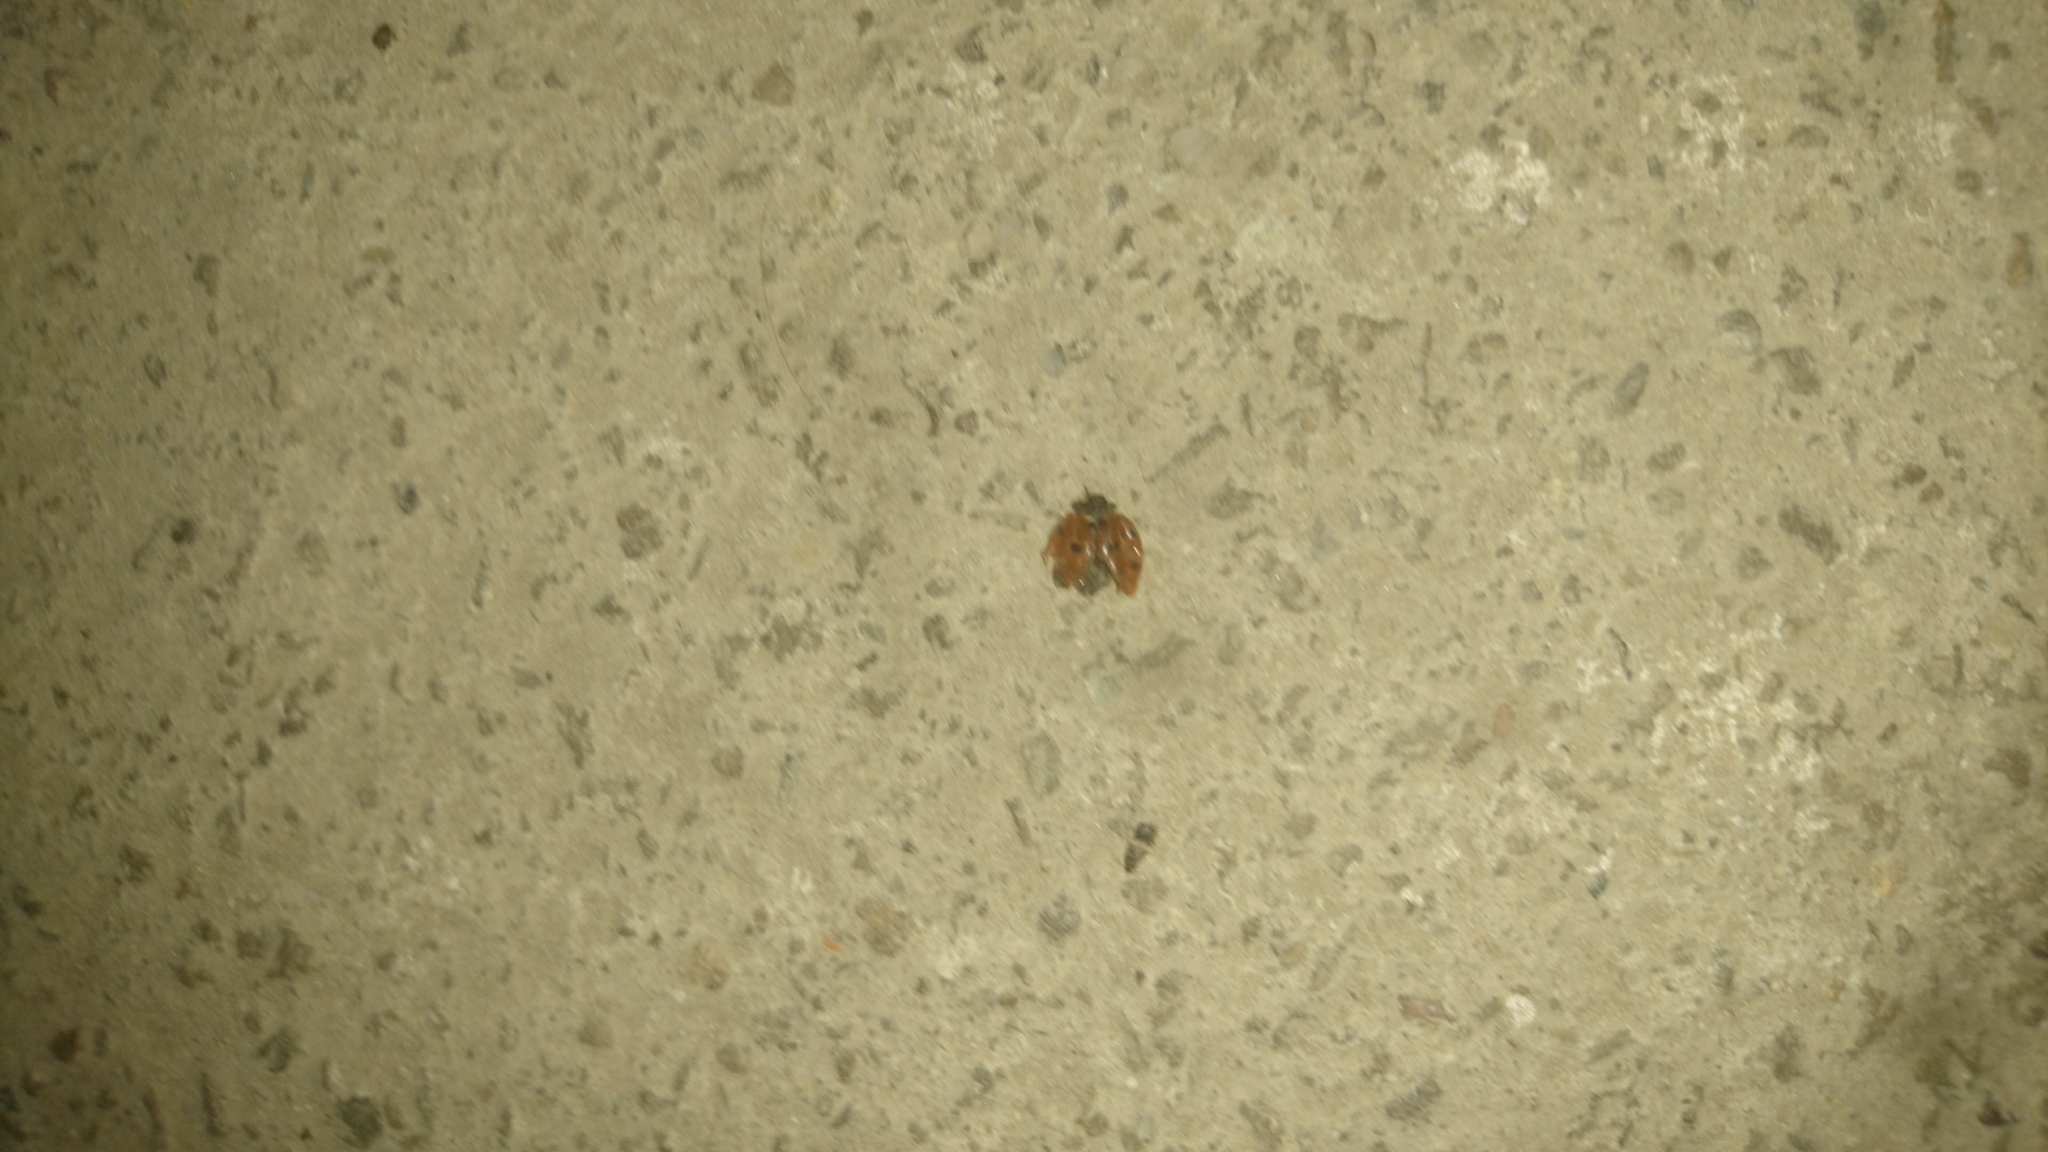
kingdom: Animalia
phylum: Arthropoda
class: Insecta
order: Coleoptera
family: Coccinellidae
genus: Coccinella
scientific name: Coccinella septempunctata
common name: Sevenspotted lady beetle
